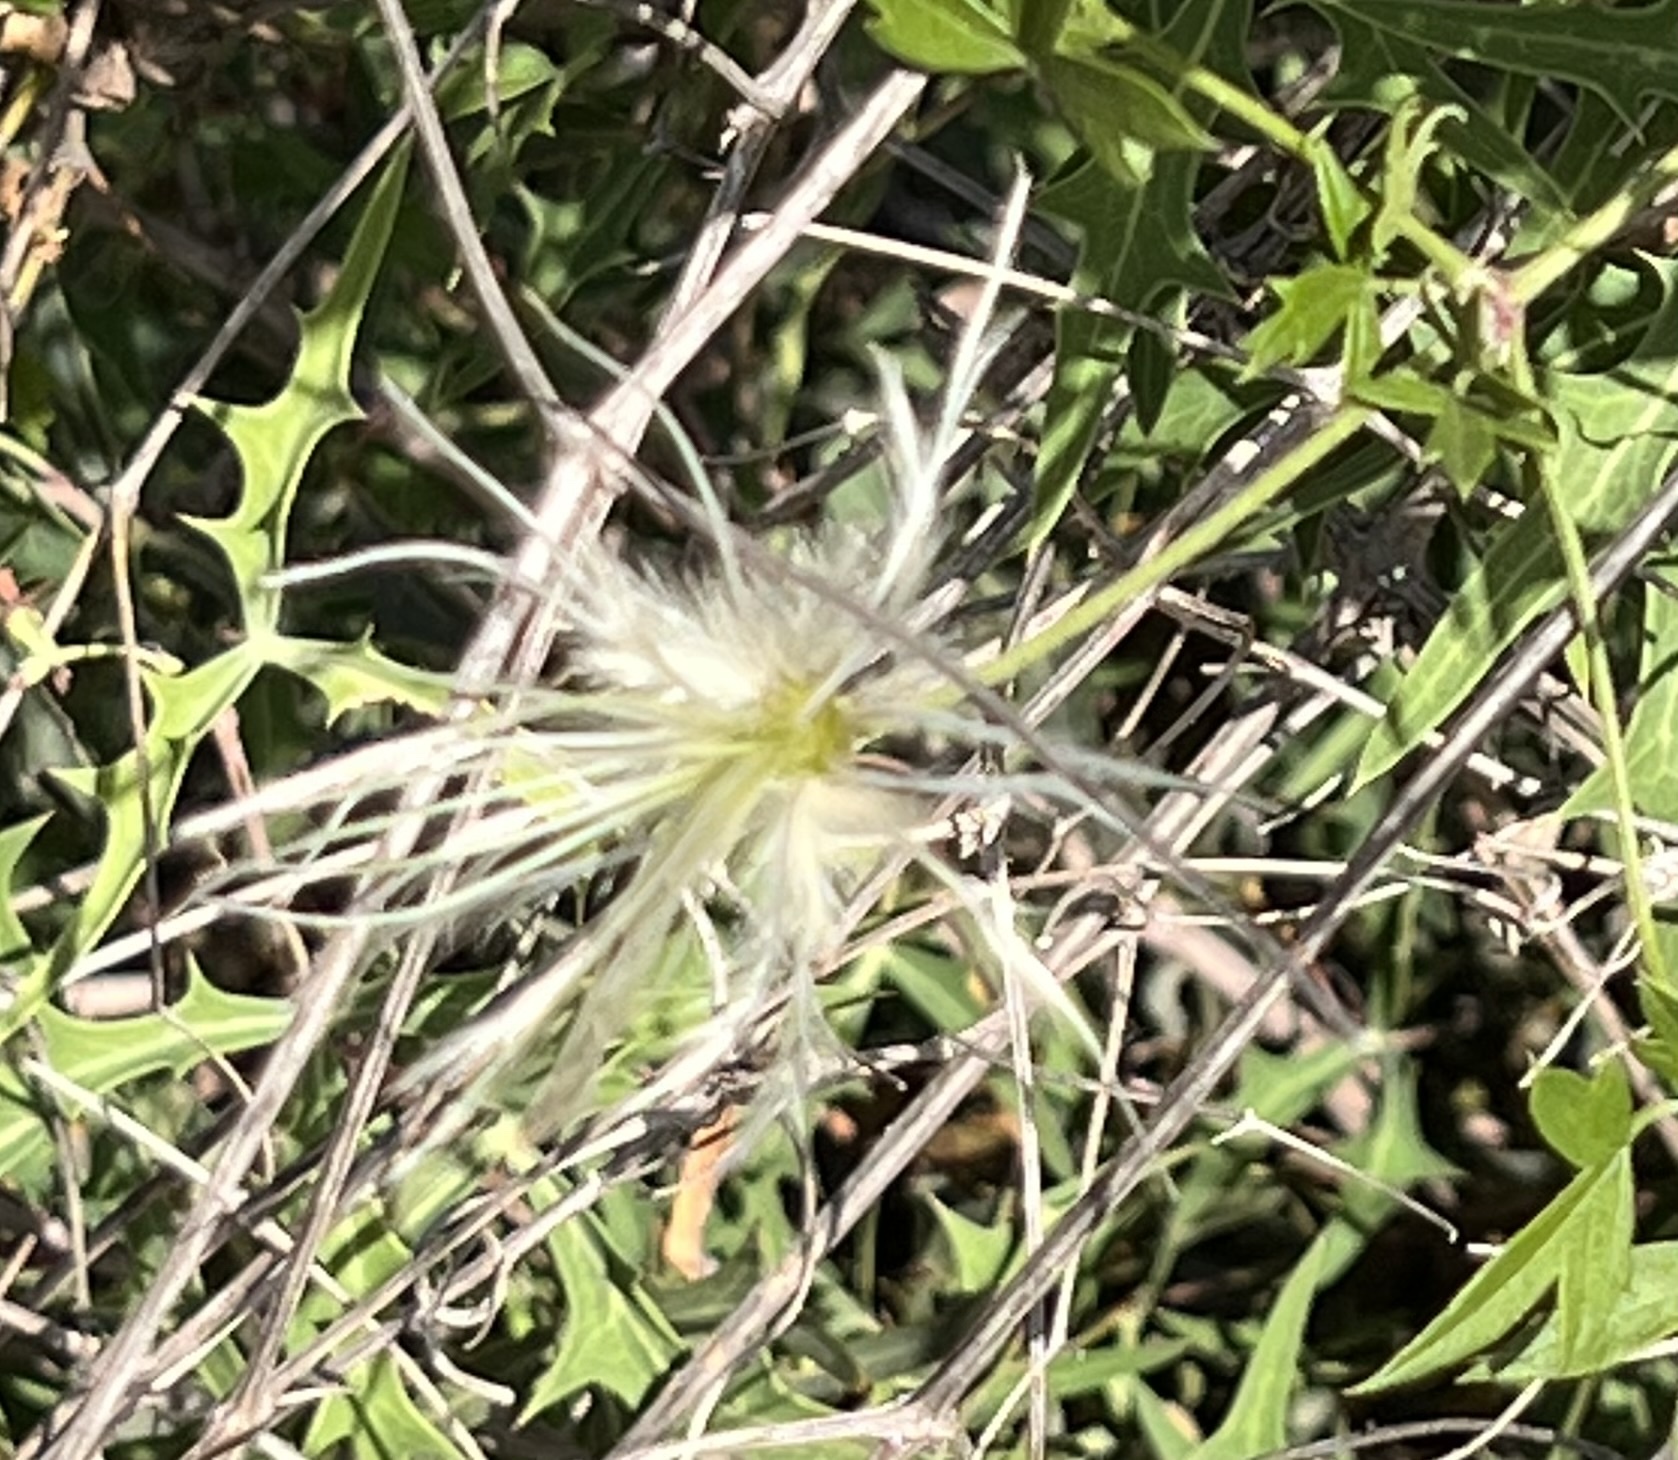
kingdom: Plantae
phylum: Tracheophyta
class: Magnoliopsida
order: Ranunculales
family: Ranunculaceae
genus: Clematis
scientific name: Clematis drummondii
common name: Texas virgin's bower
